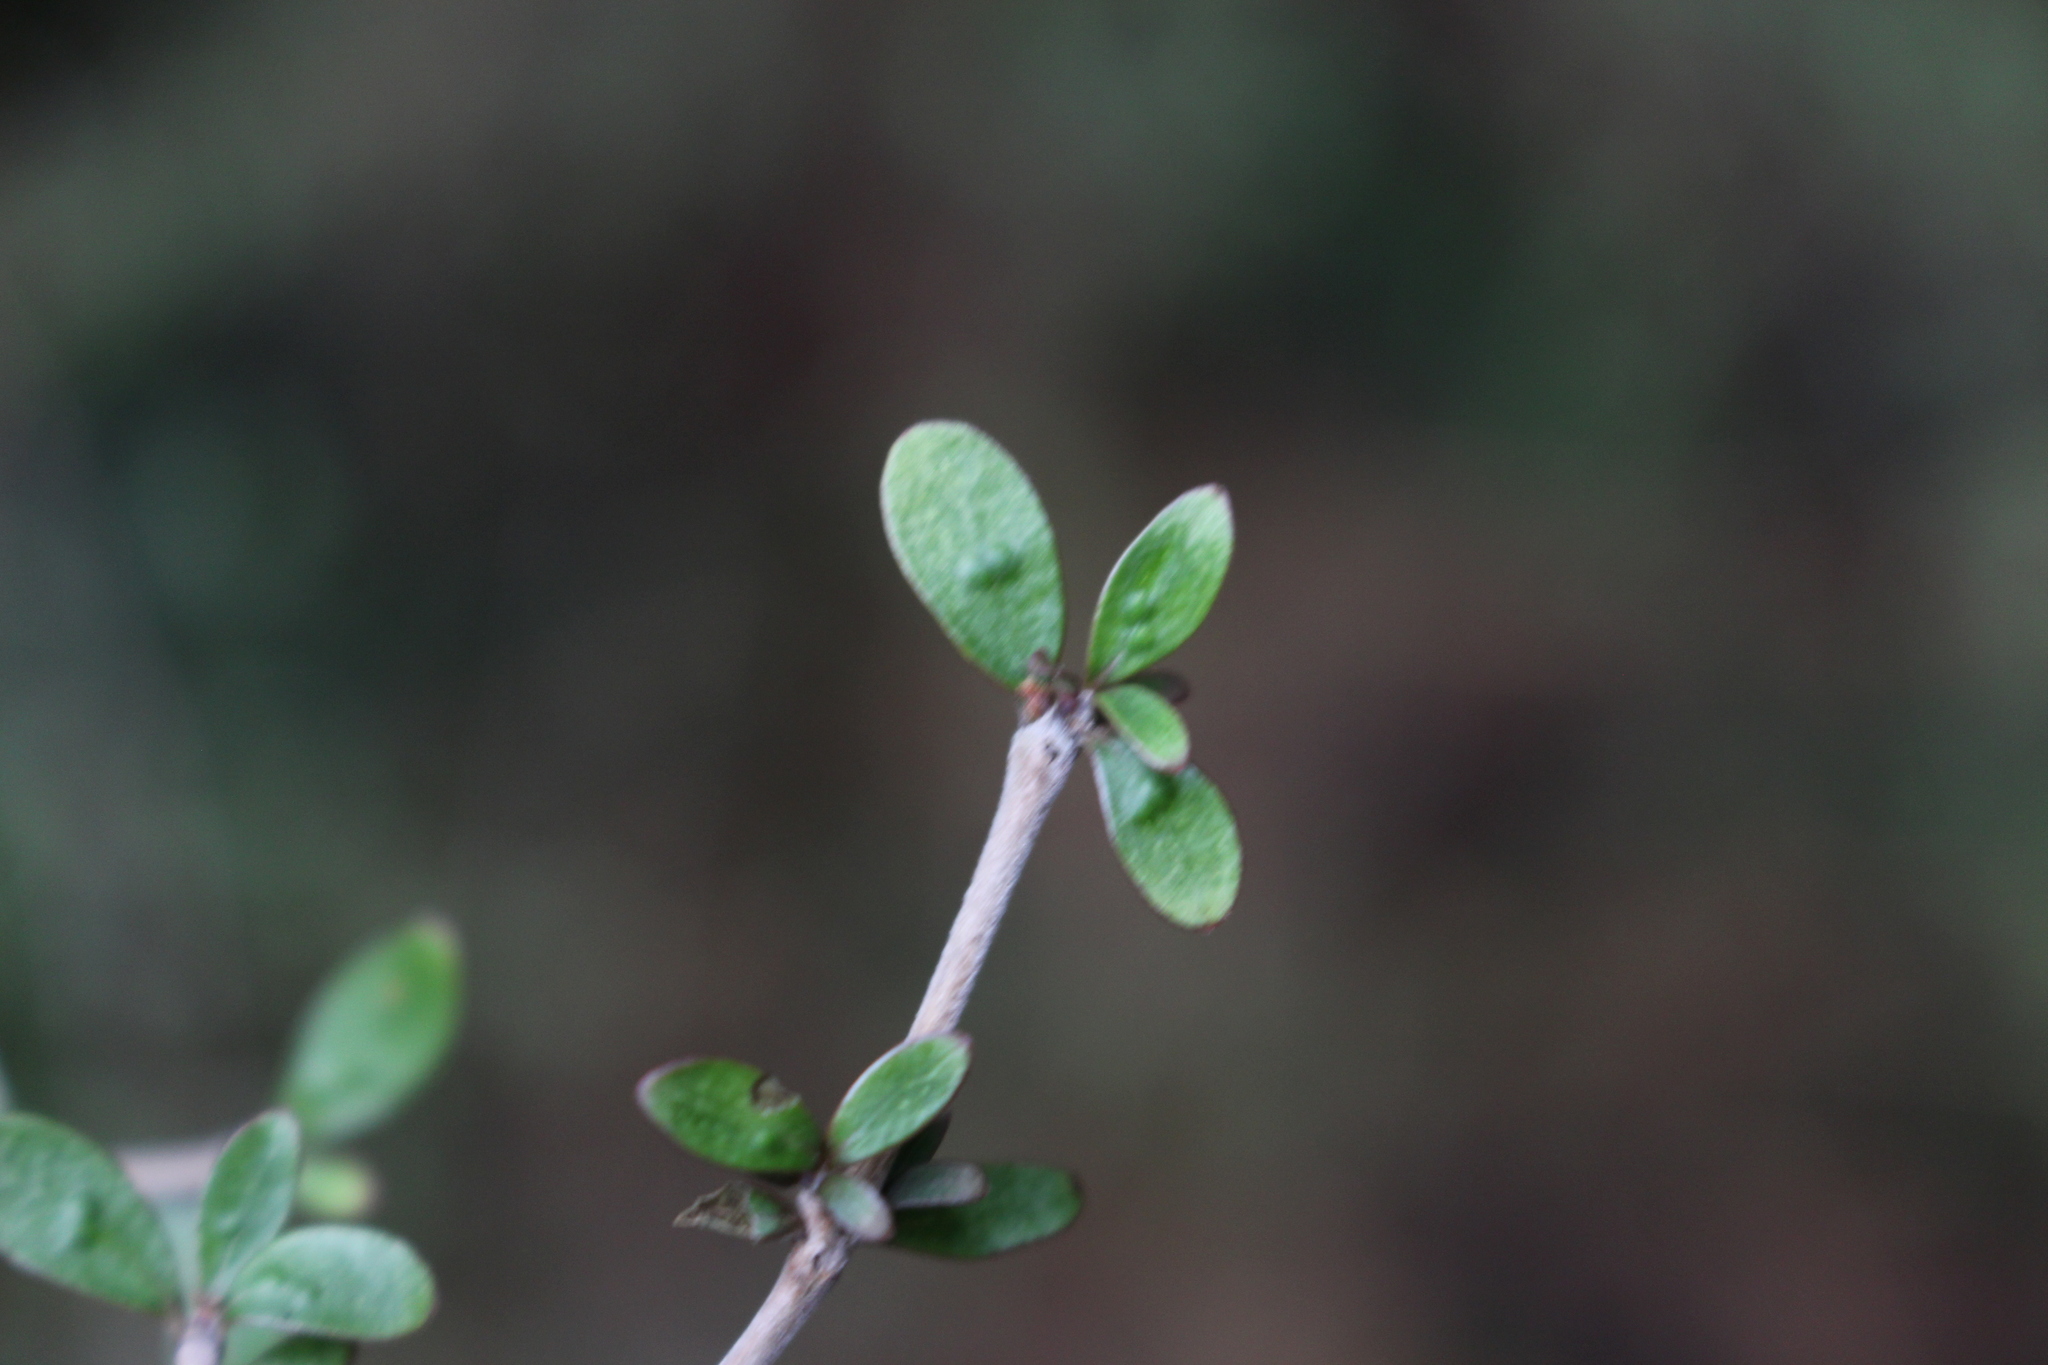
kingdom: Plantae
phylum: Tracheophyta
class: Magnoliopsida
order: Gentianales
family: Rubiaceae
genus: Coprosma
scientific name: Coprosma dumosa
